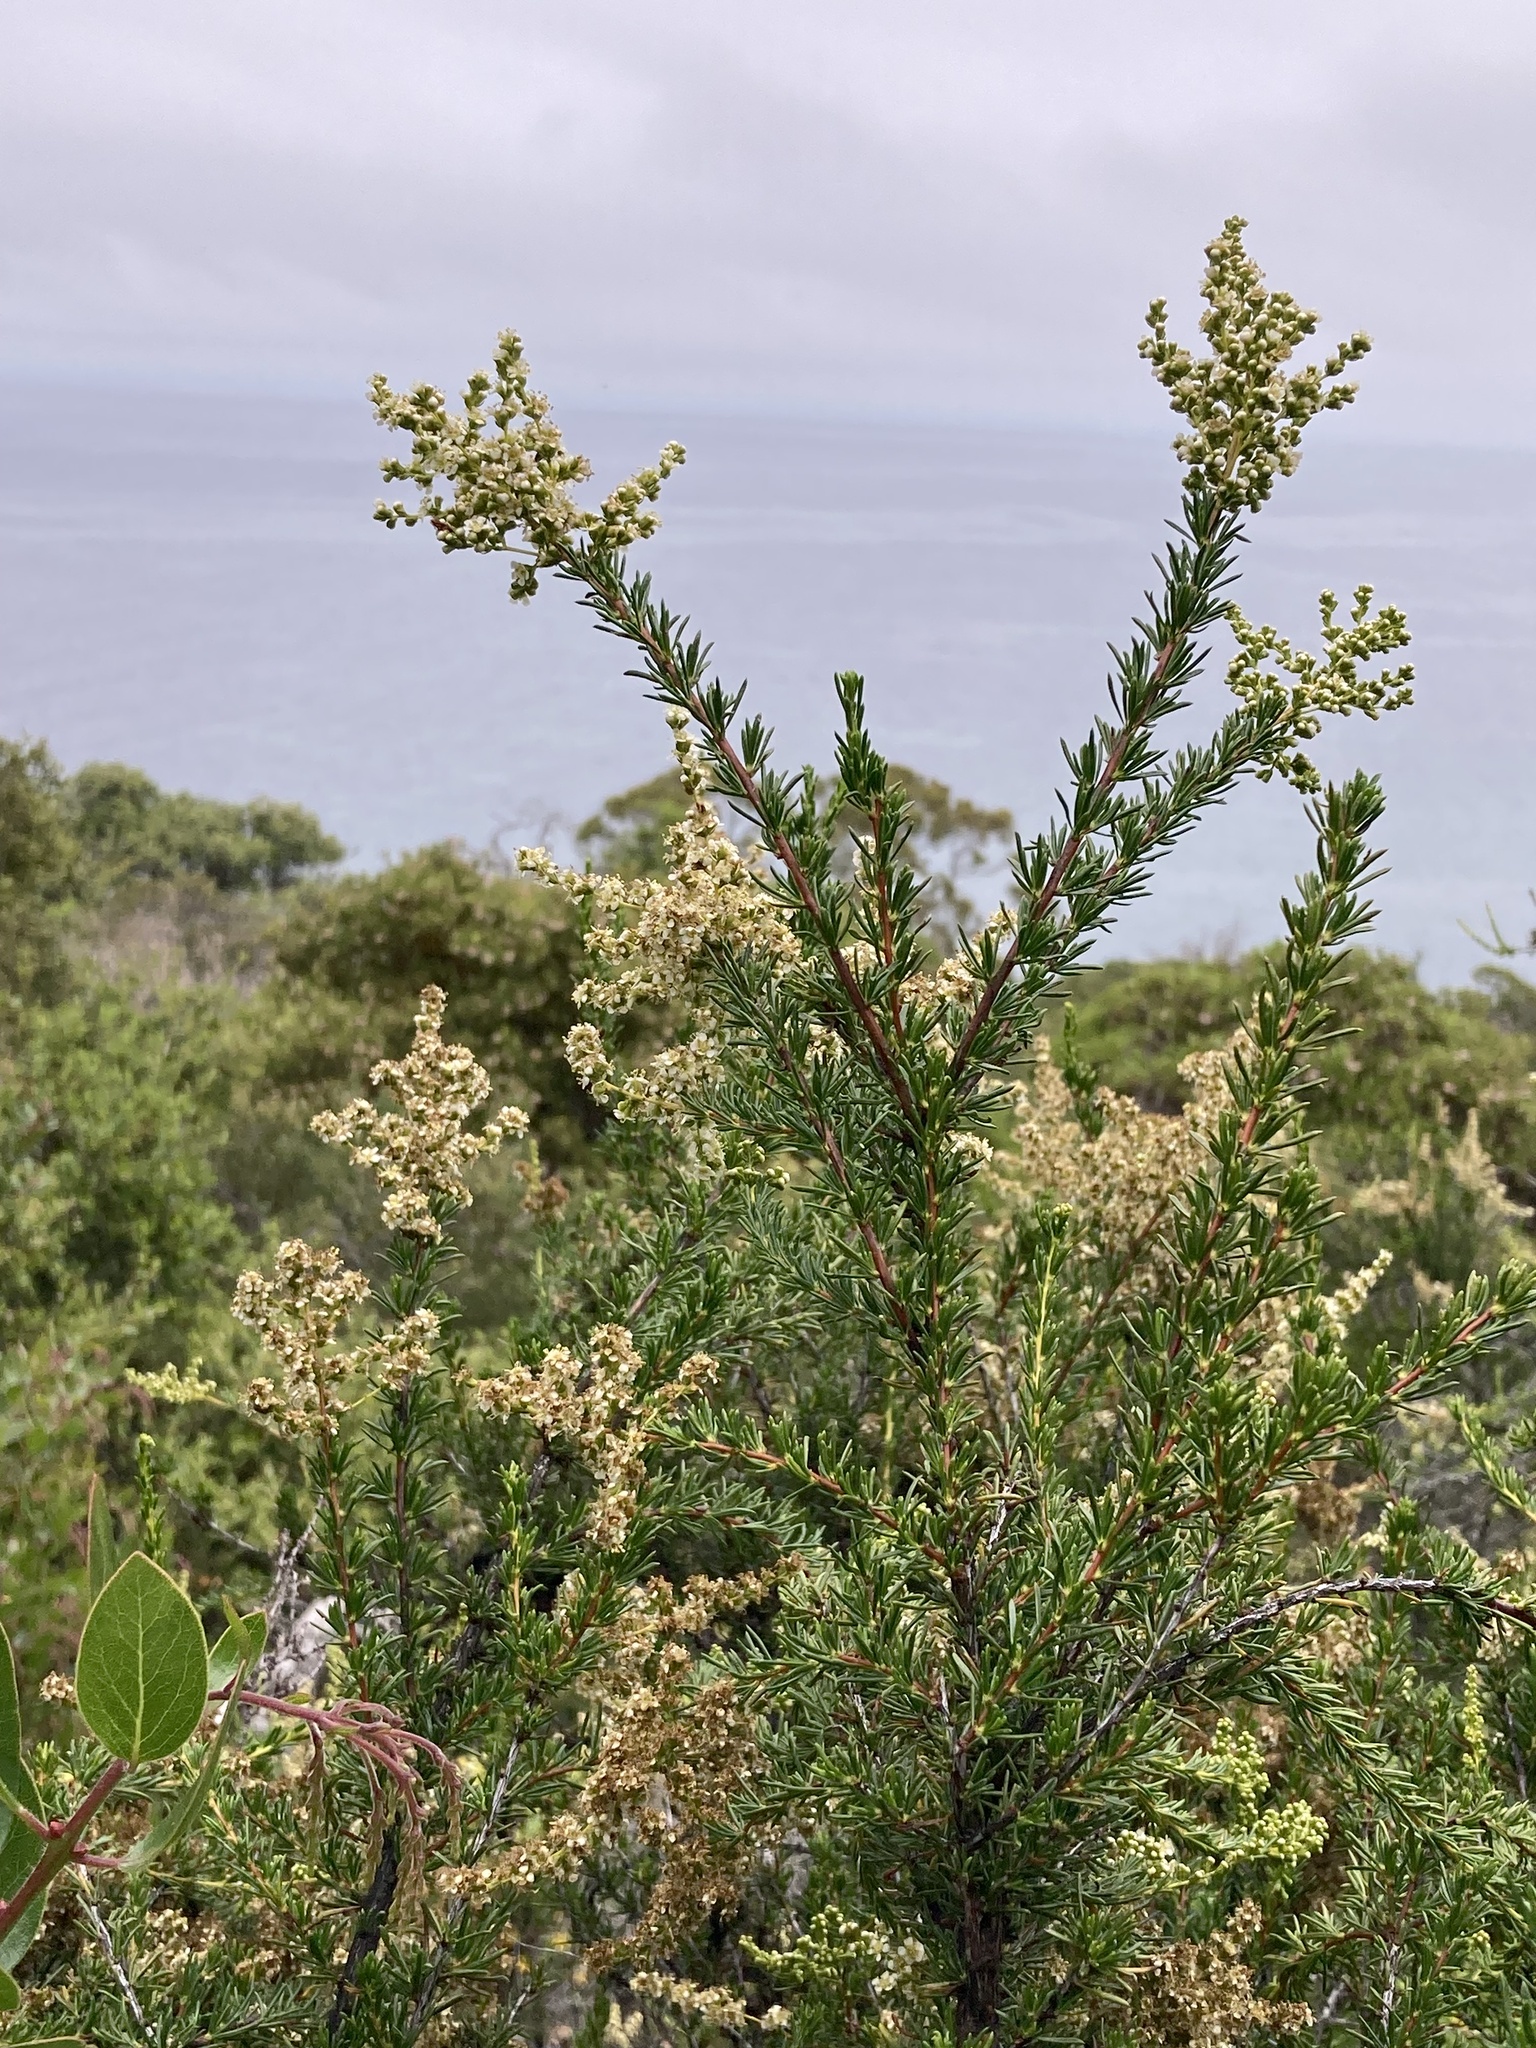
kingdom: Plantae
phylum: Tracheophyta
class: Magnoliopsida
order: Rosales
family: Rosaceae
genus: Adenostoma
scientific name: Adenostoma fasciculatum
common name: Chamise
